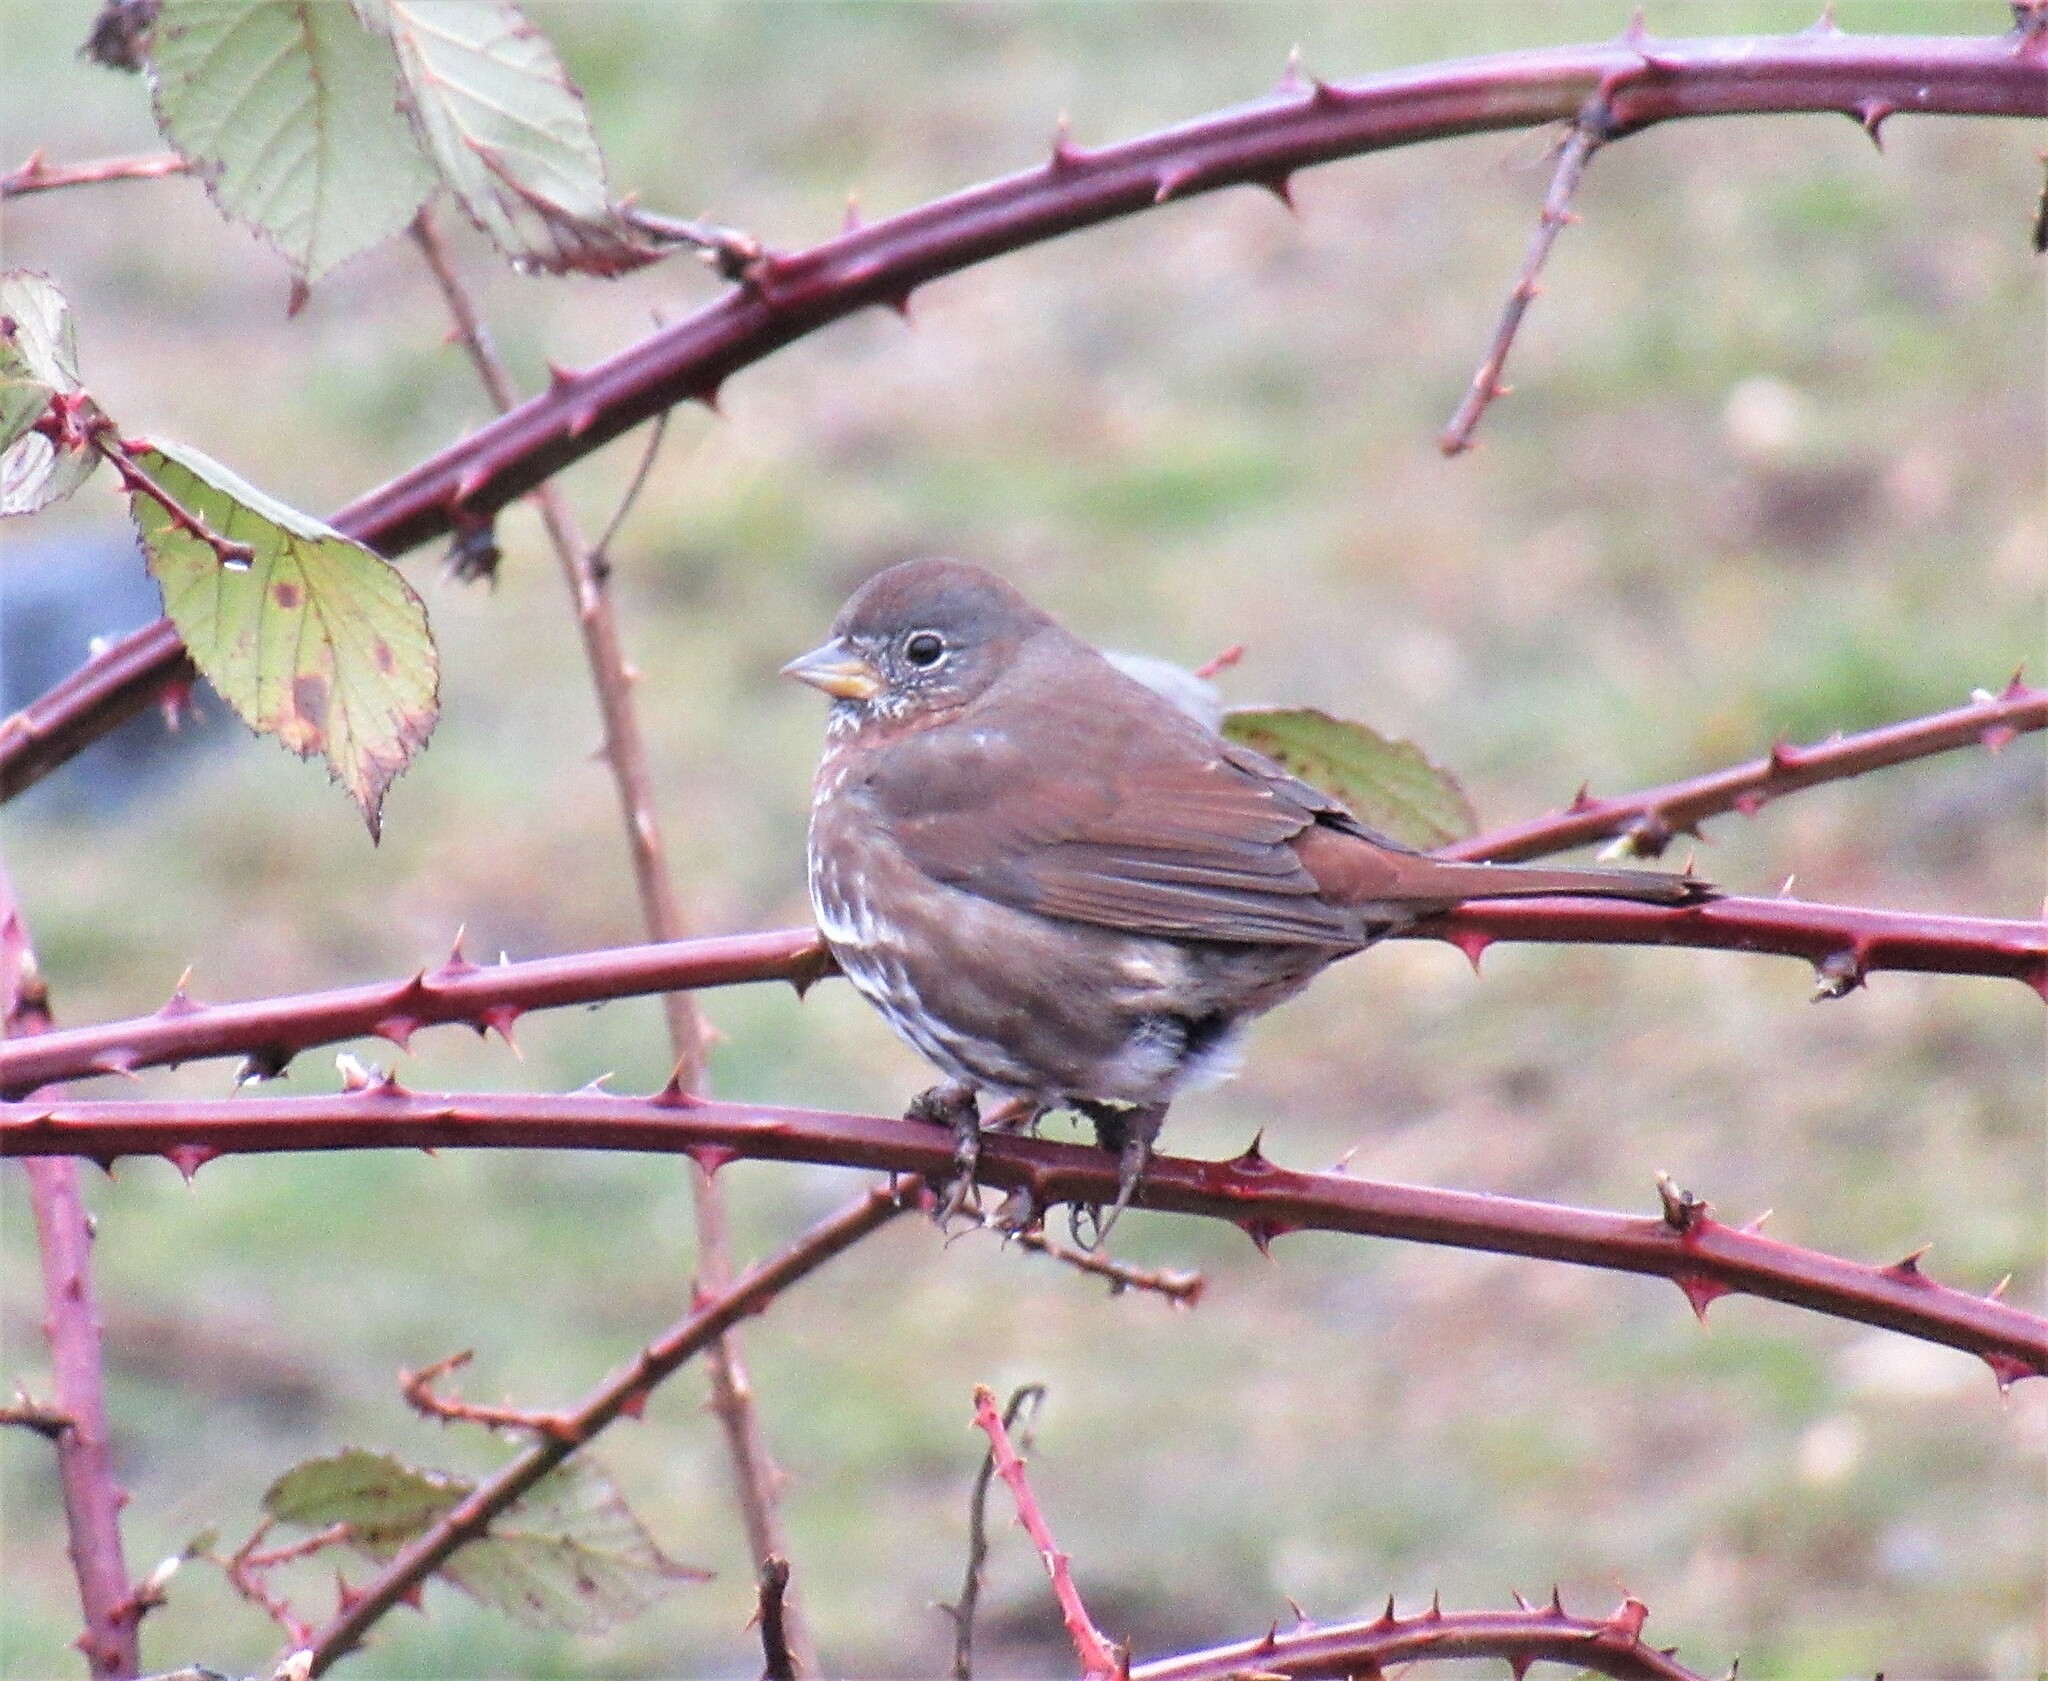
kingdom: Animalia
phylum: Chordata
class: Aves
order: Passeriformes
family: Passerellidae
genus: Passerella
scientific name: Passerella iliaca
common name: Fox sparrow
